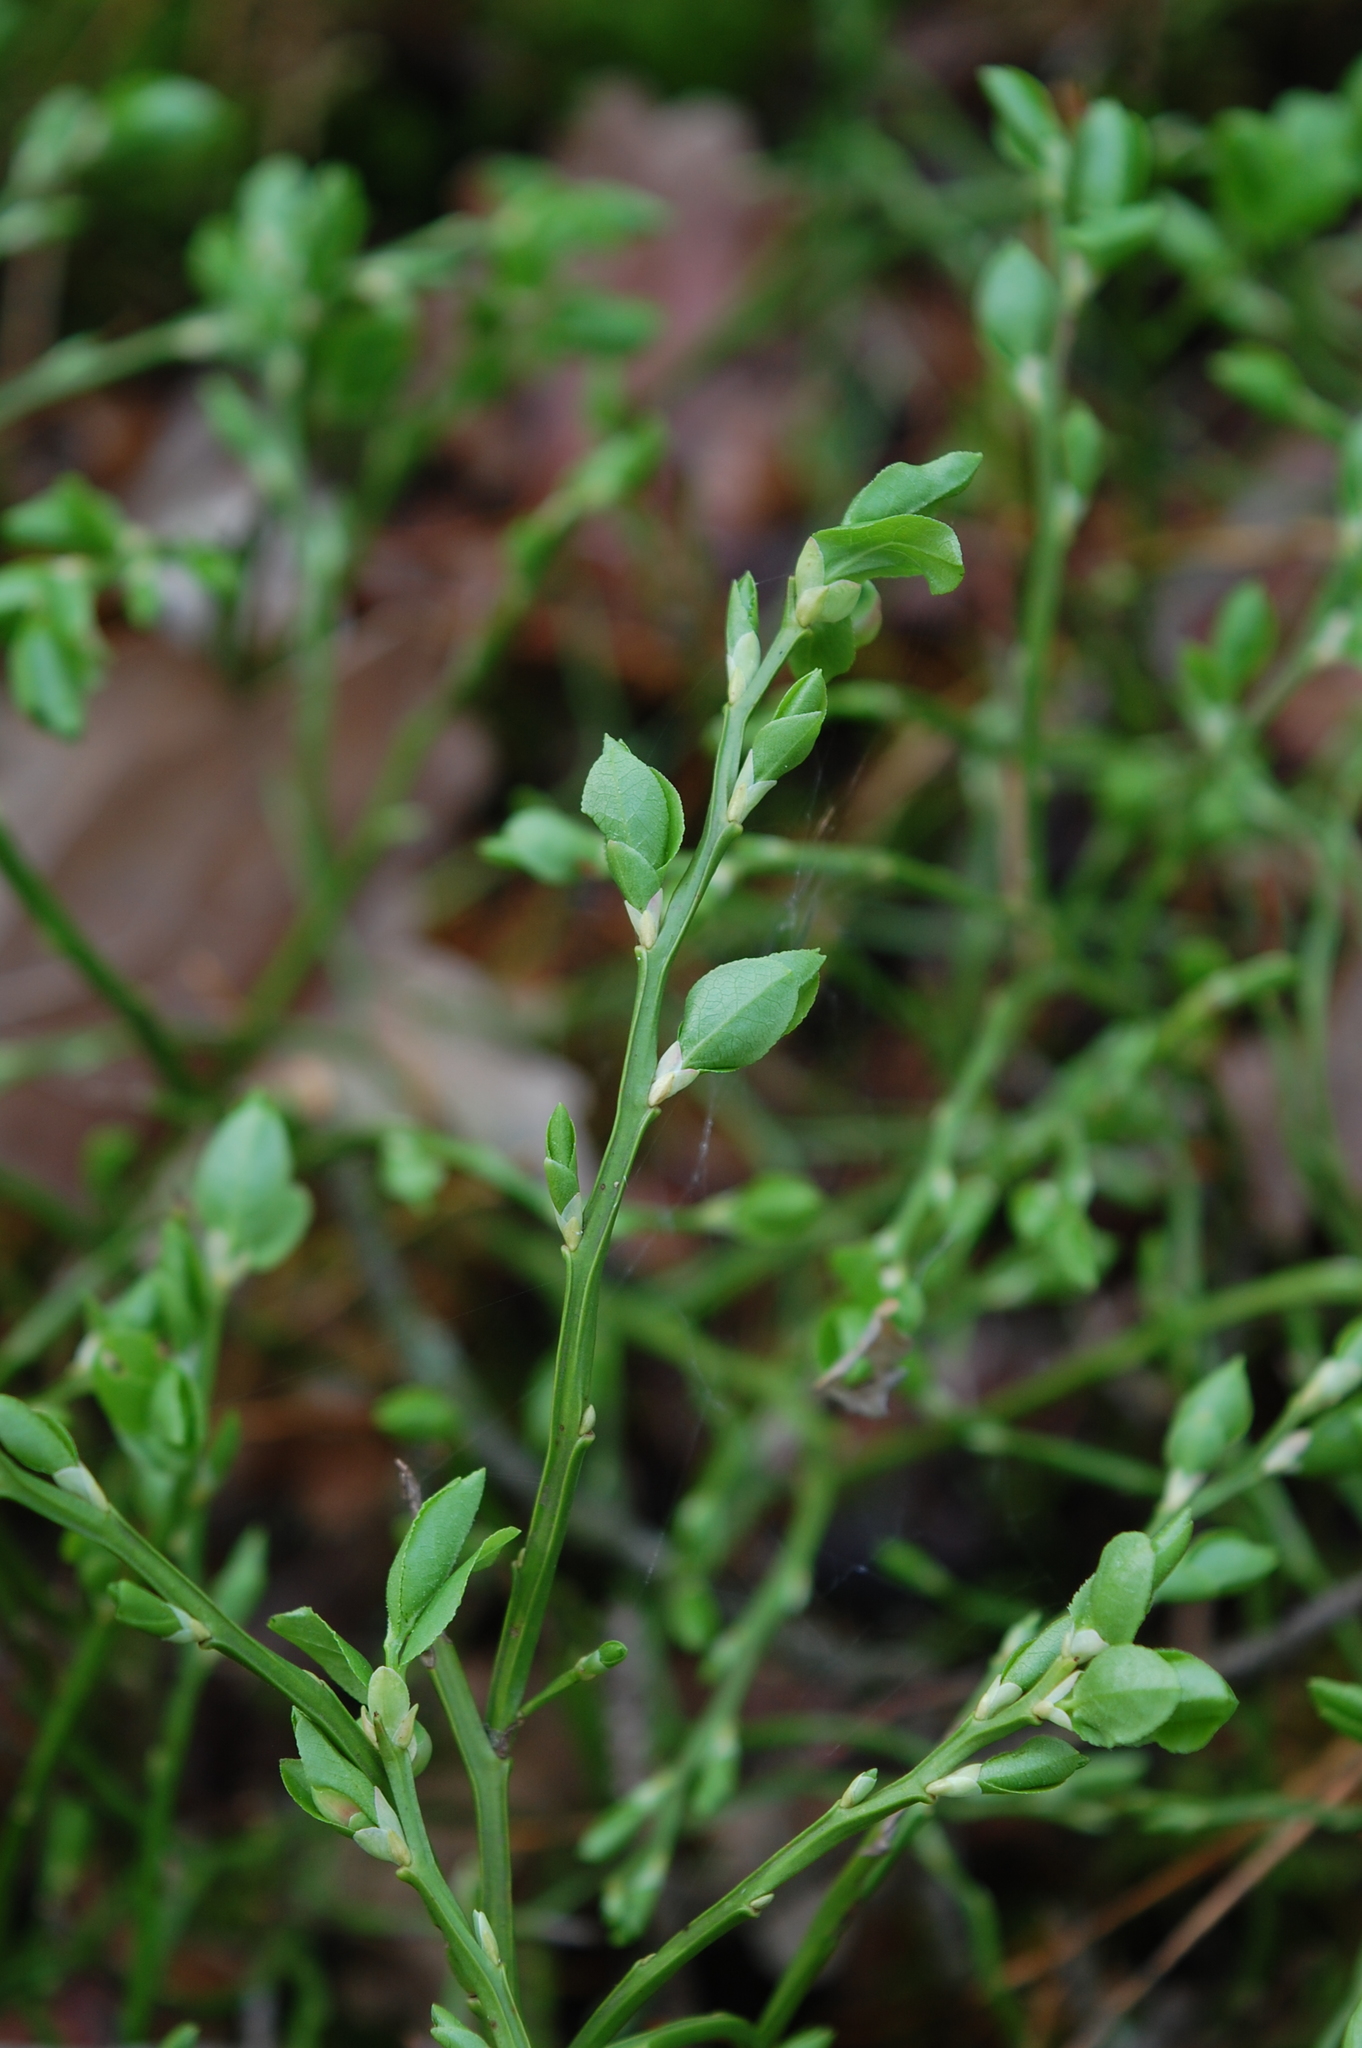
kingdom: Plantae
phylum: Tracheophyta
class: Magnoliopsida
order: Ericales
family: Ericaceae
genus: Vaccinium
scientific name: Vaccinium myrtillus
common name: Bilberry
